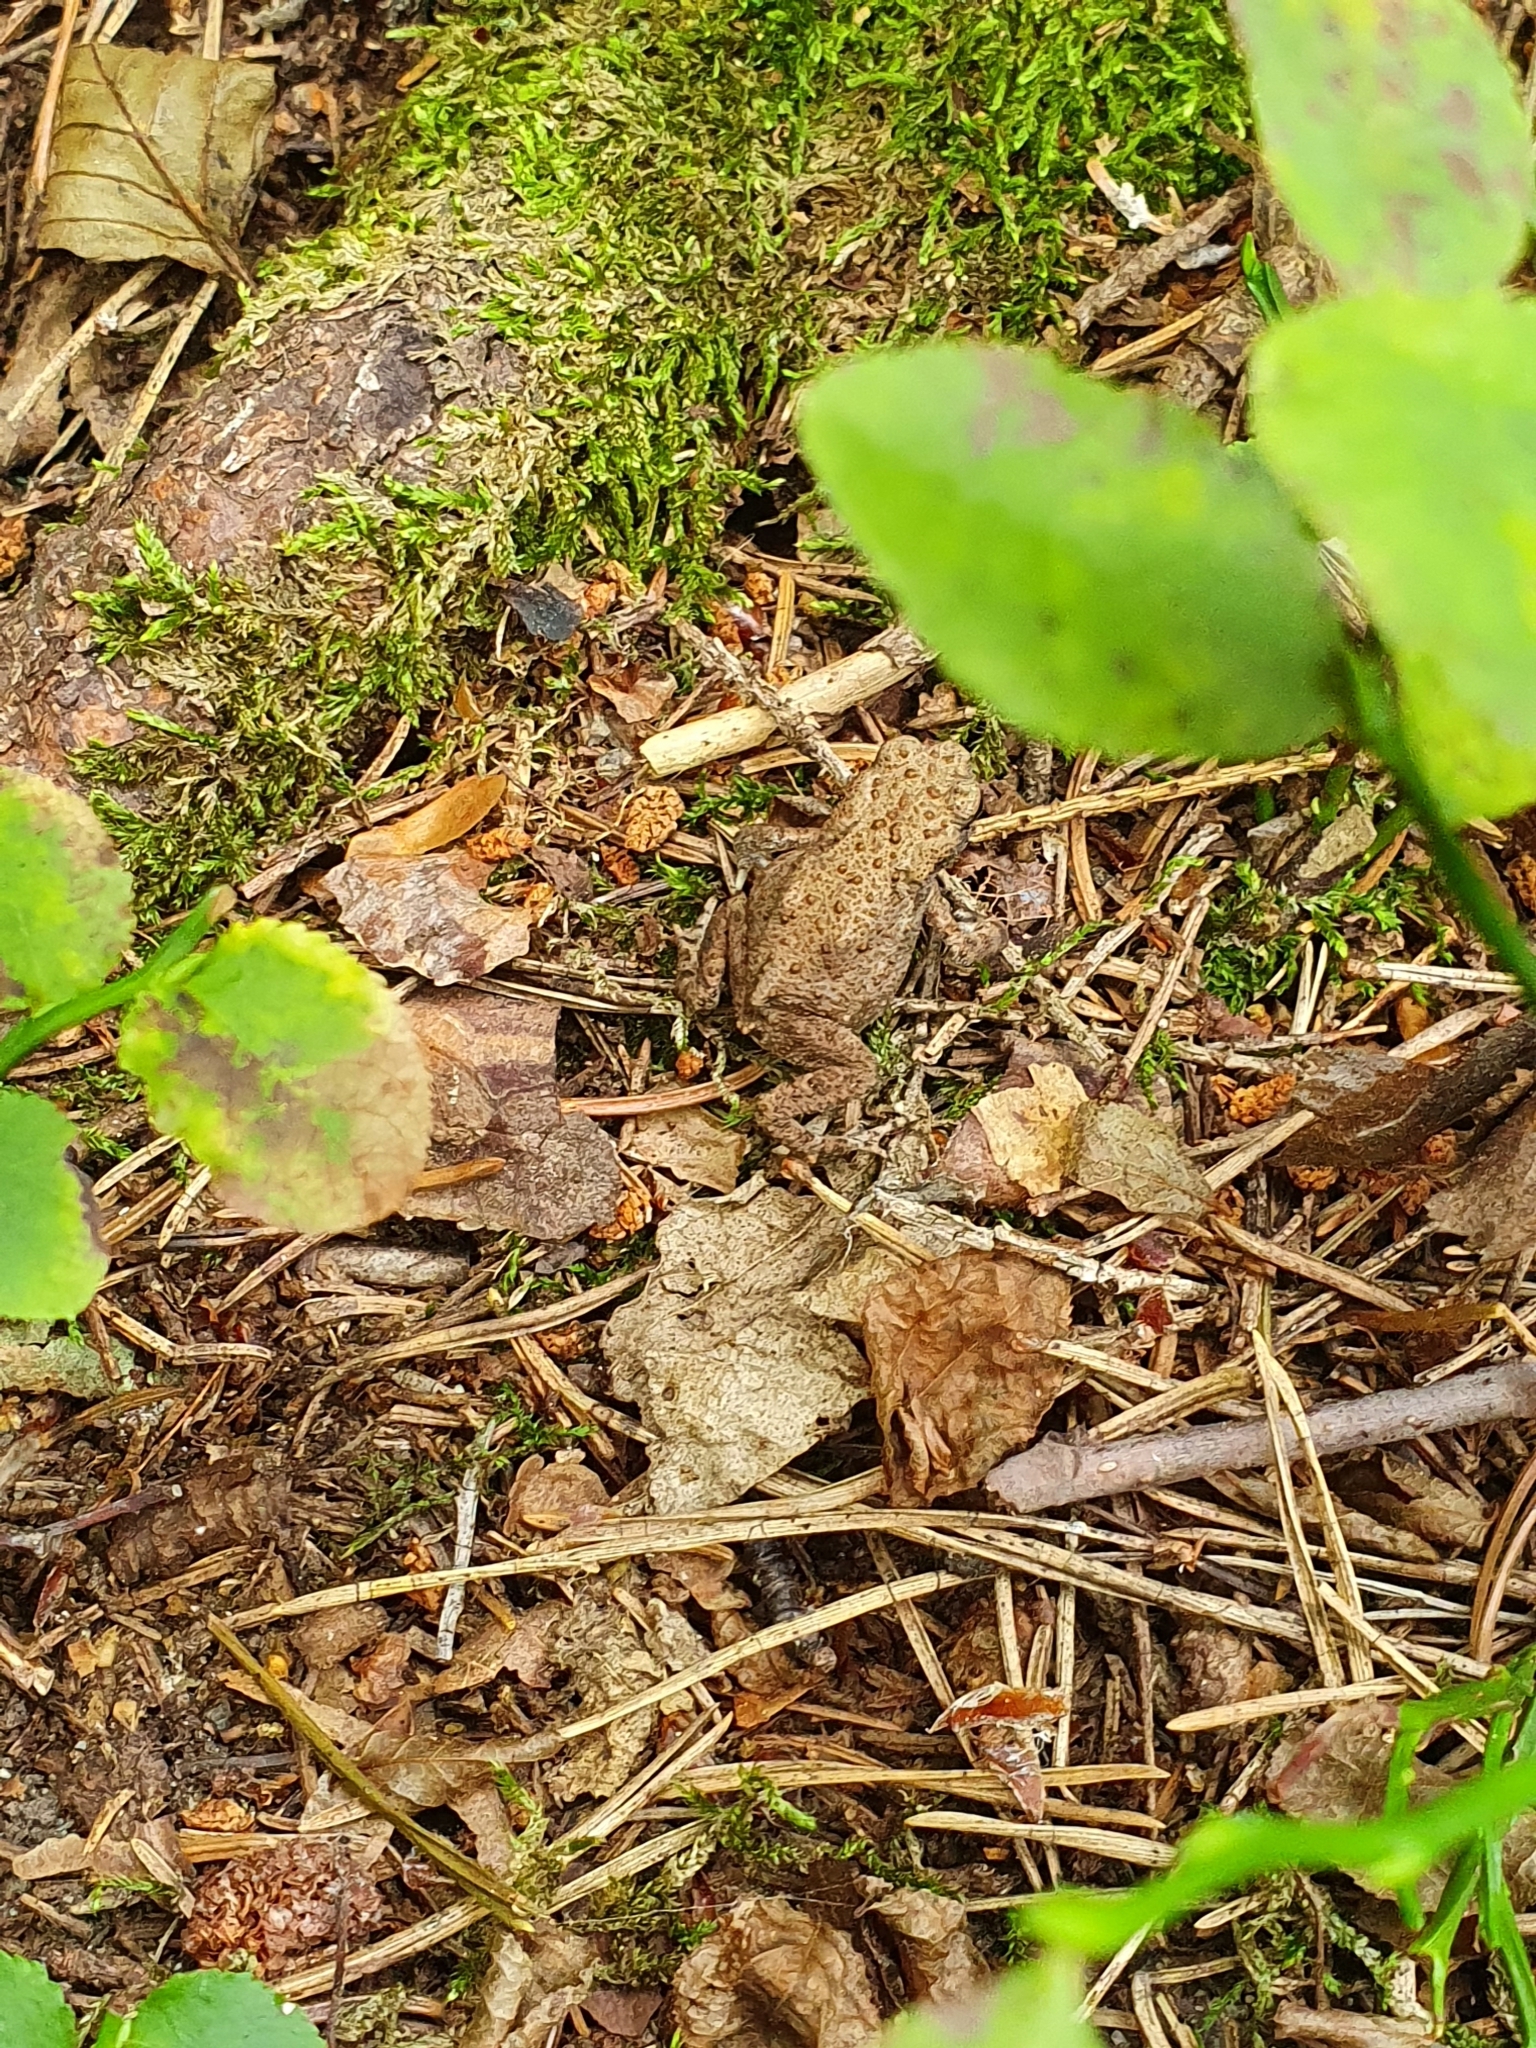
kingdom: Animalia
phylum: Chordata
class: Amphibia
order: Anura
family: Bufonidae
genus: Bufo
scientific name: Bufo bufo
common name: Common toad
